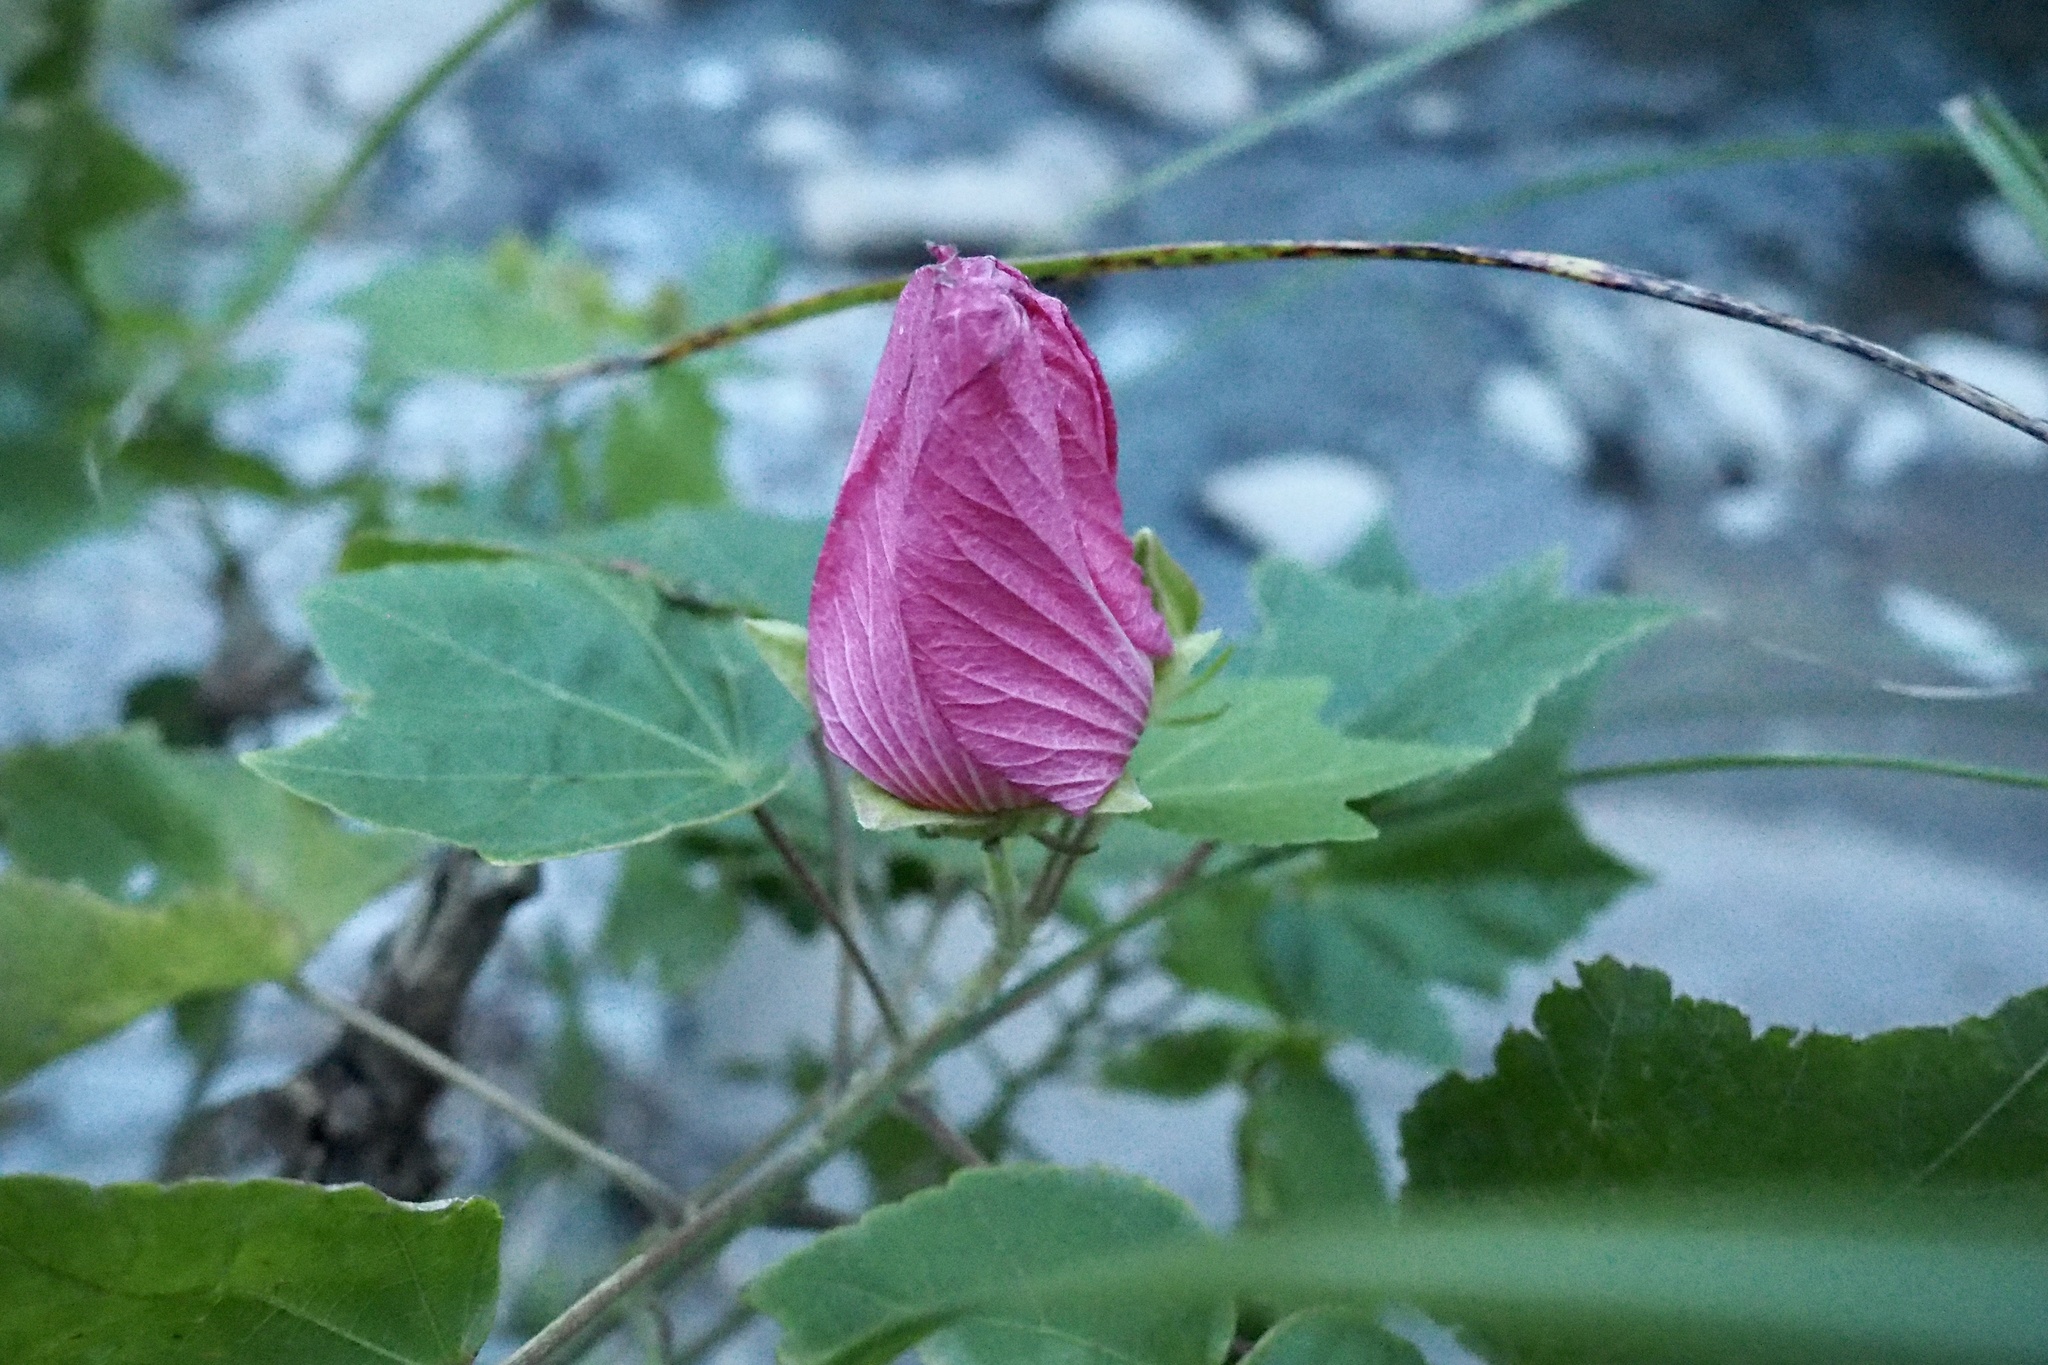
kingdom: Plantae
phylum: Tracheophyta
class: Magnoliopsida
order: Malvales
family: Malvaceae
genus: Hibiscus
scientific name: Hibiscus mutabilis
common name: Dixie rosemallow
